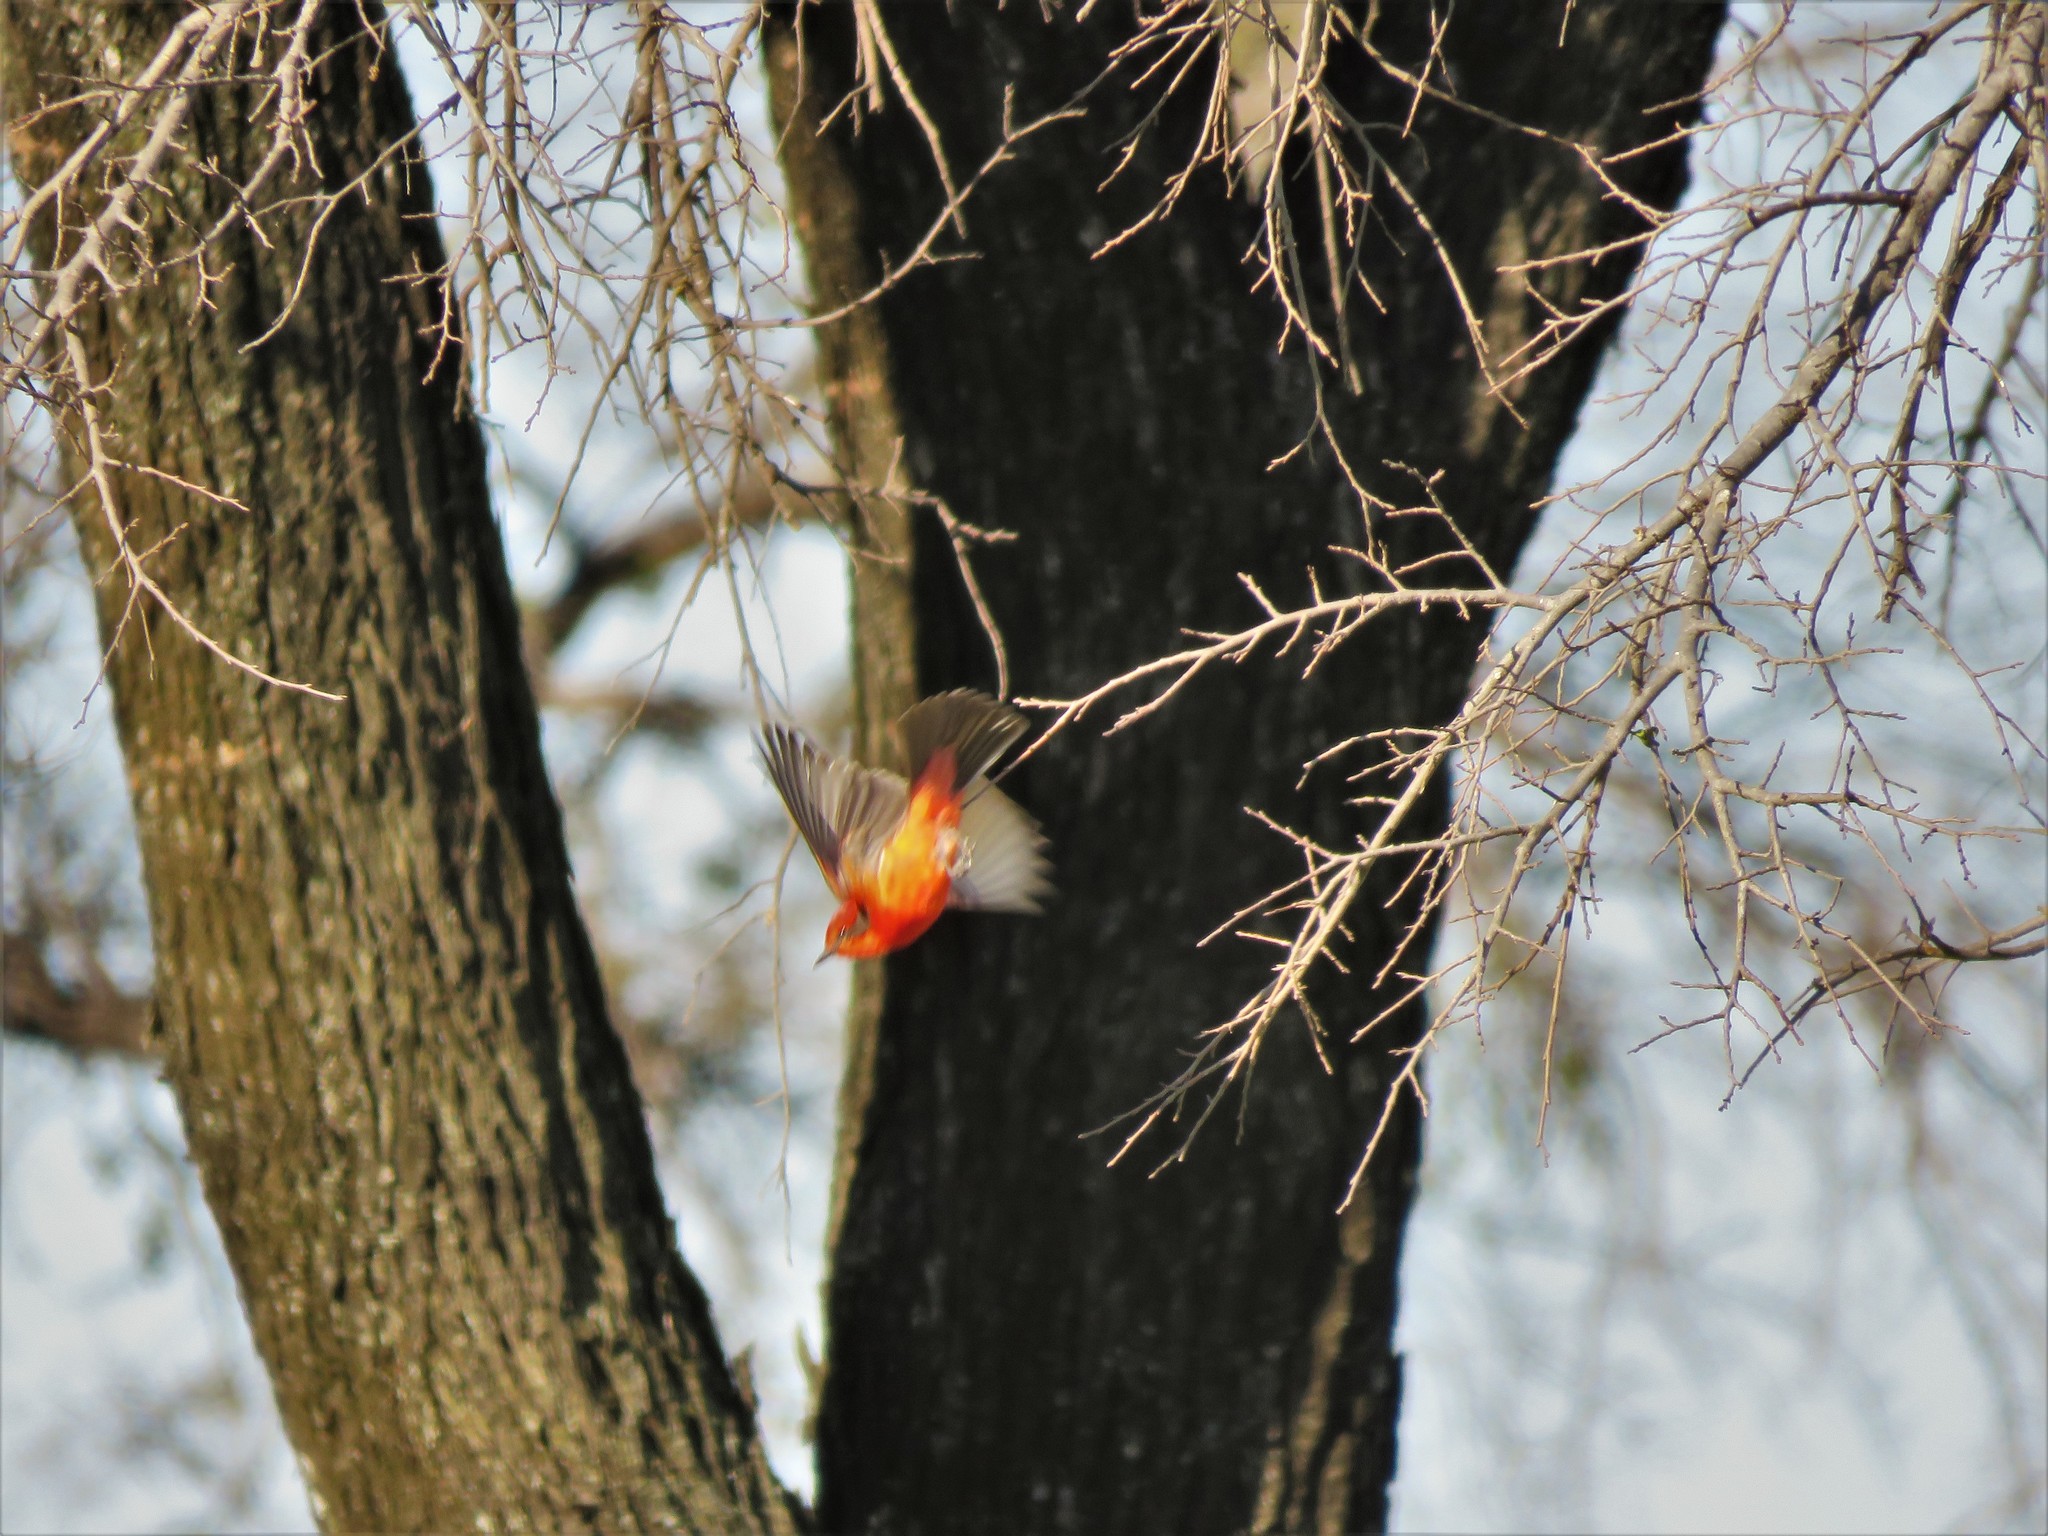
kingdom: Animalia
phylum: Chordata
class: Aves
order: Passeriformes
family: Tyrannidae
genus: Pyrocephalus
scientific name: Pyrocephalus rubinus
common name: Vermilion flycatcher
